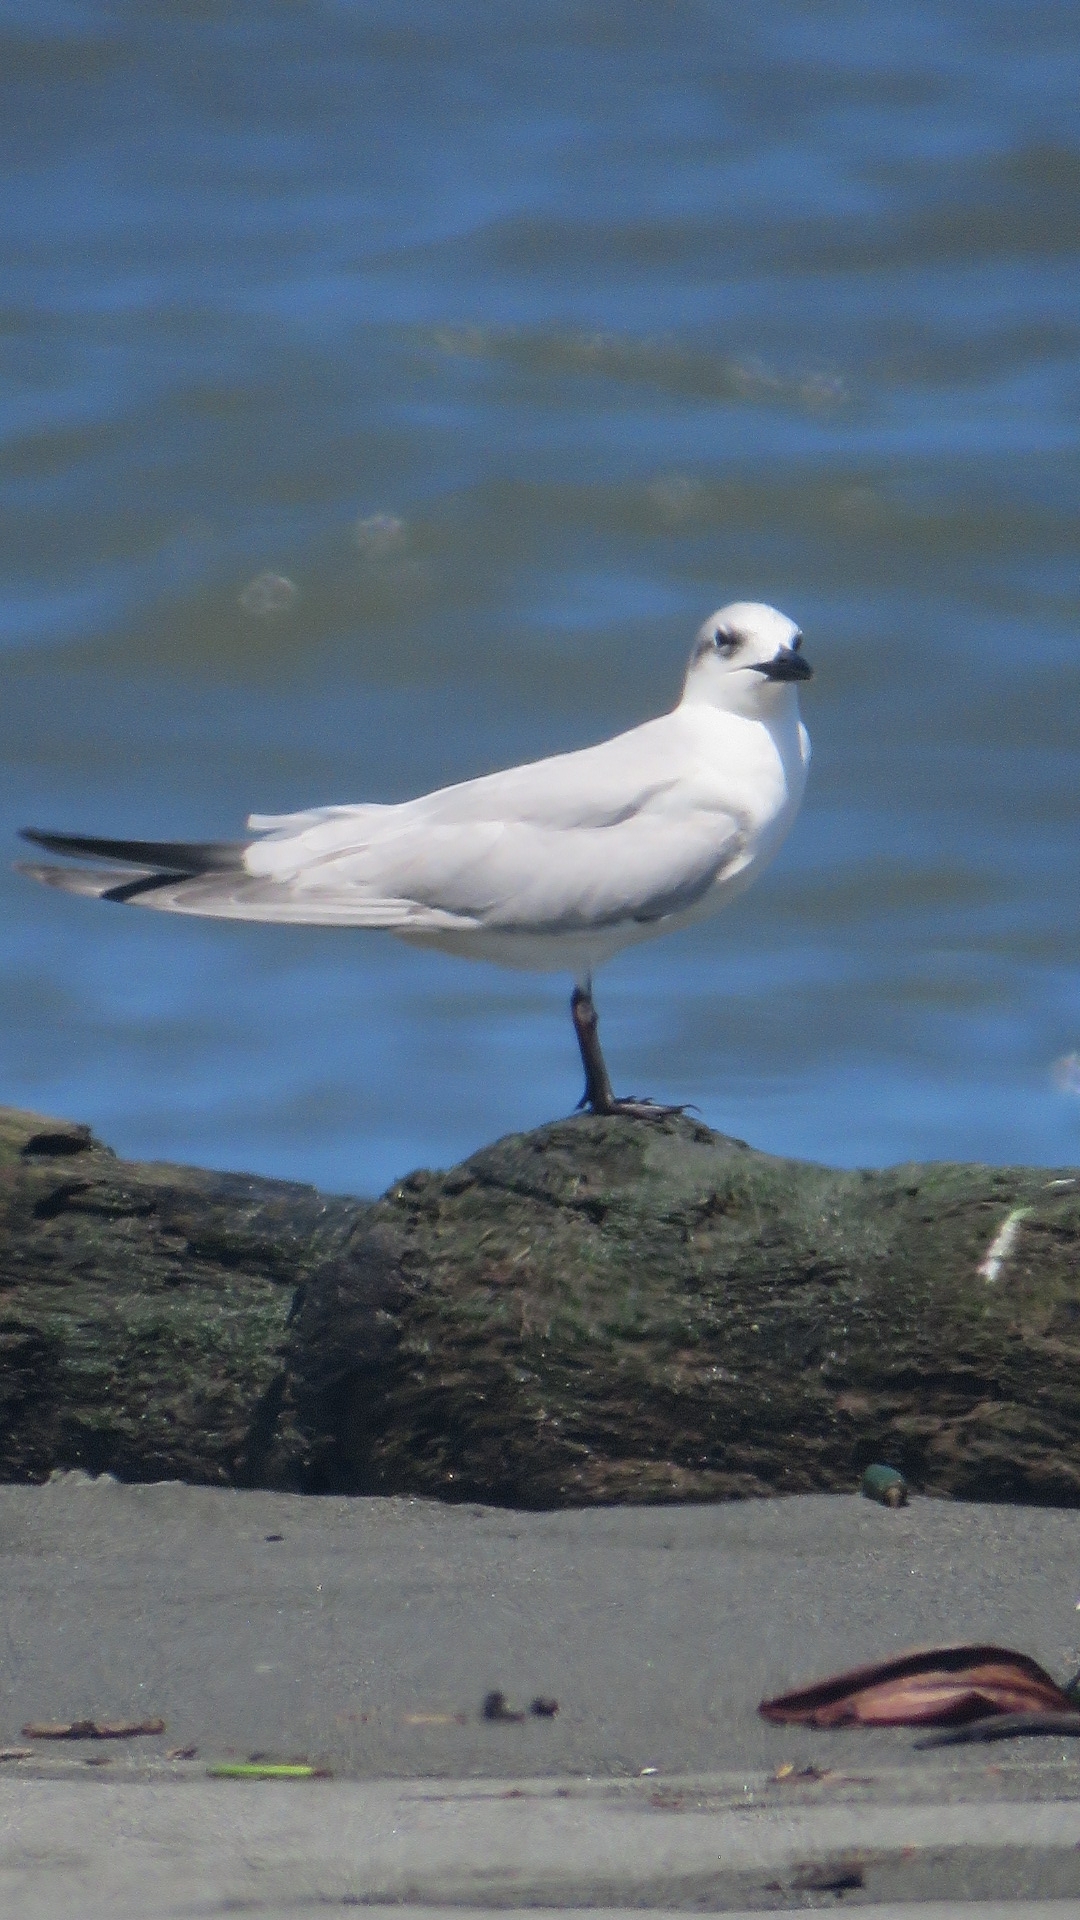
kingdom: Animalia
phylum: Chordata
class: Aves
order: Charadriiformes
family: Laridae
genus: Gelochelidon
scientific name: Gelochelidon nilotica
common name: Gull-billed tern
